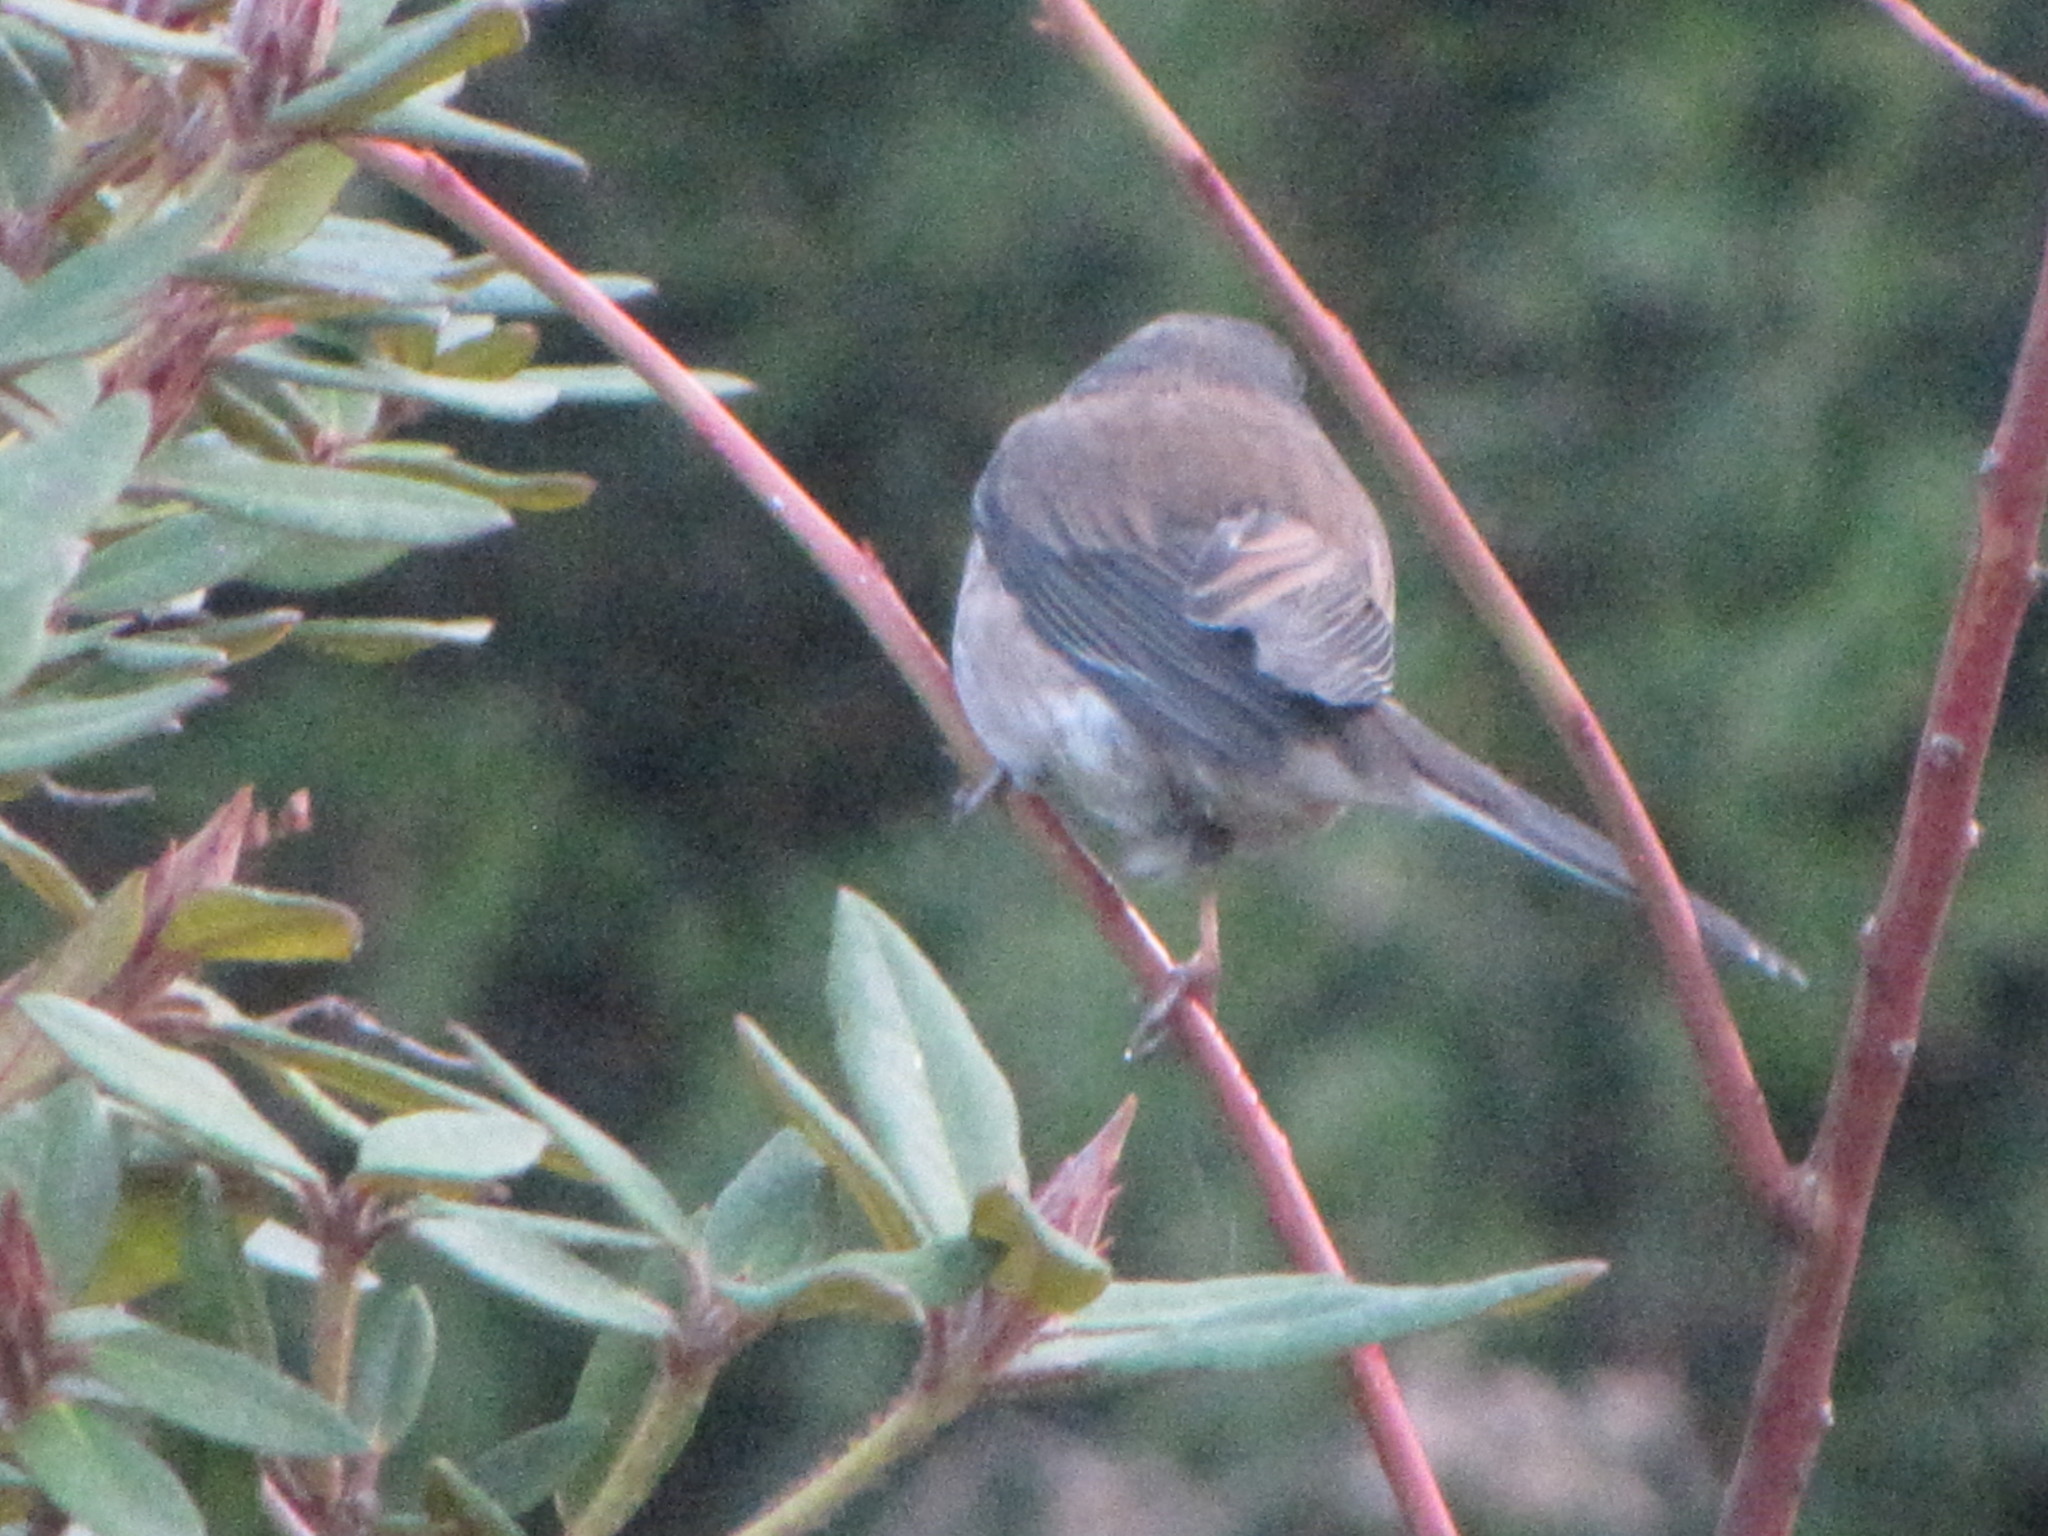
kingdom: Animalia
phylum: Chordata
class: Aves
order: Passeriformes
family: Passerellidae
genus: Junco
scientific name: Junco hyemalis
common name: Dark-eyed junco
